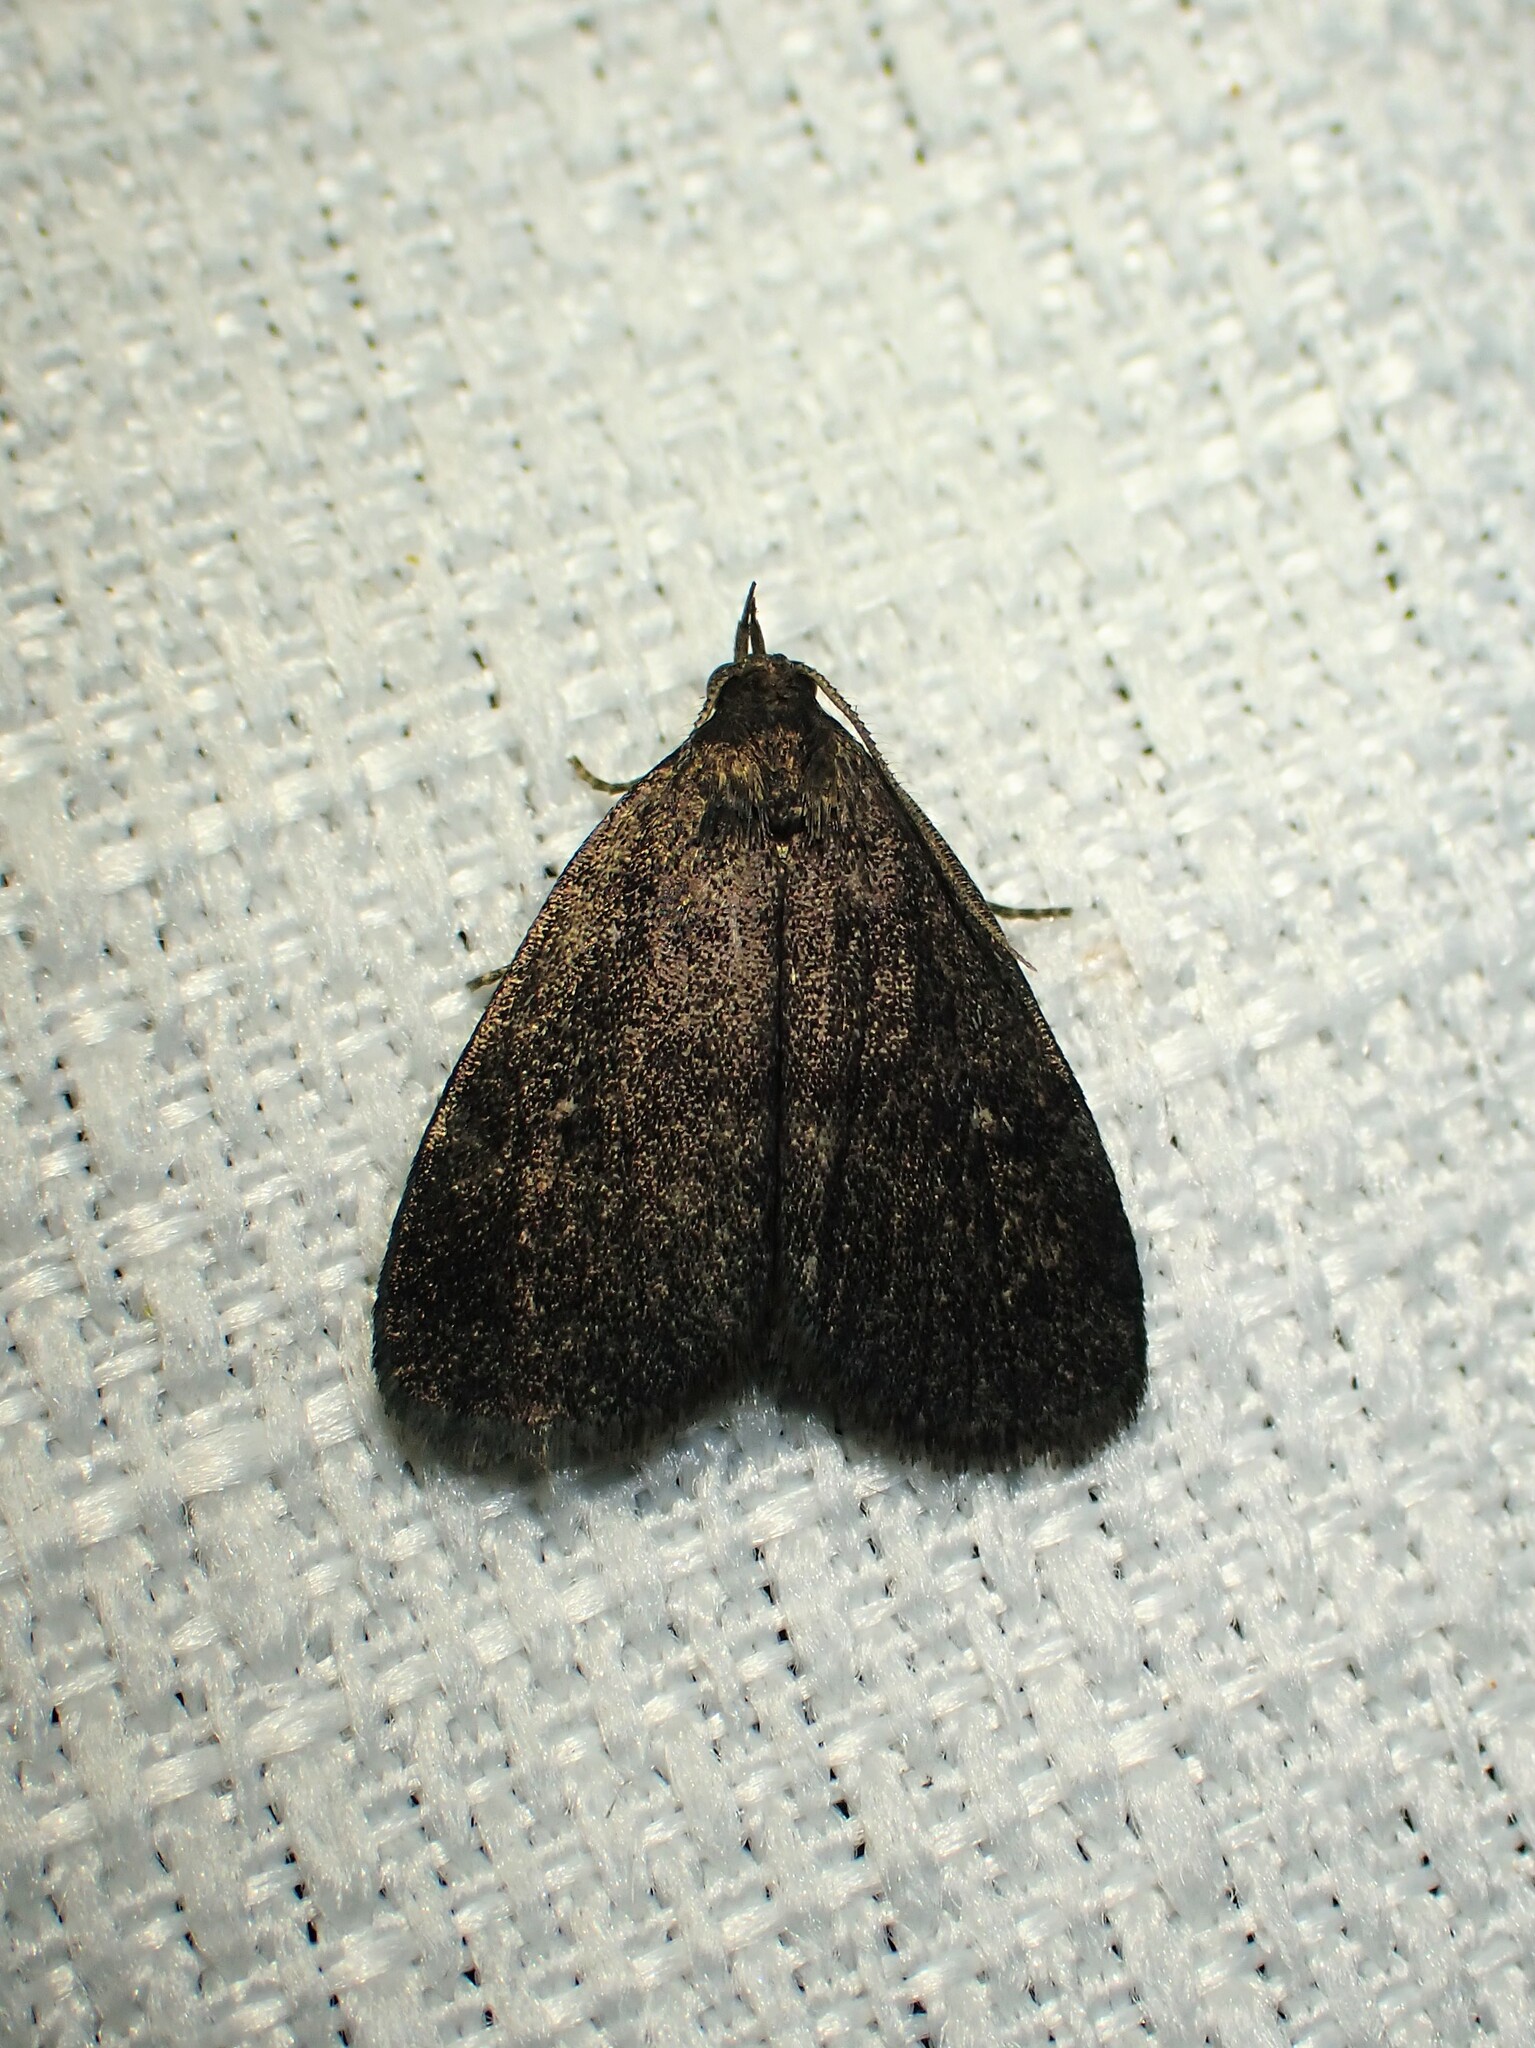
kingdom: Animalia
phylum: Arthropoda
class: Insecta
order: Lepidoptera
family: Erebidae
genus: Idia
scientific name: Idia rotundalis
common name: Rotund idia moth
